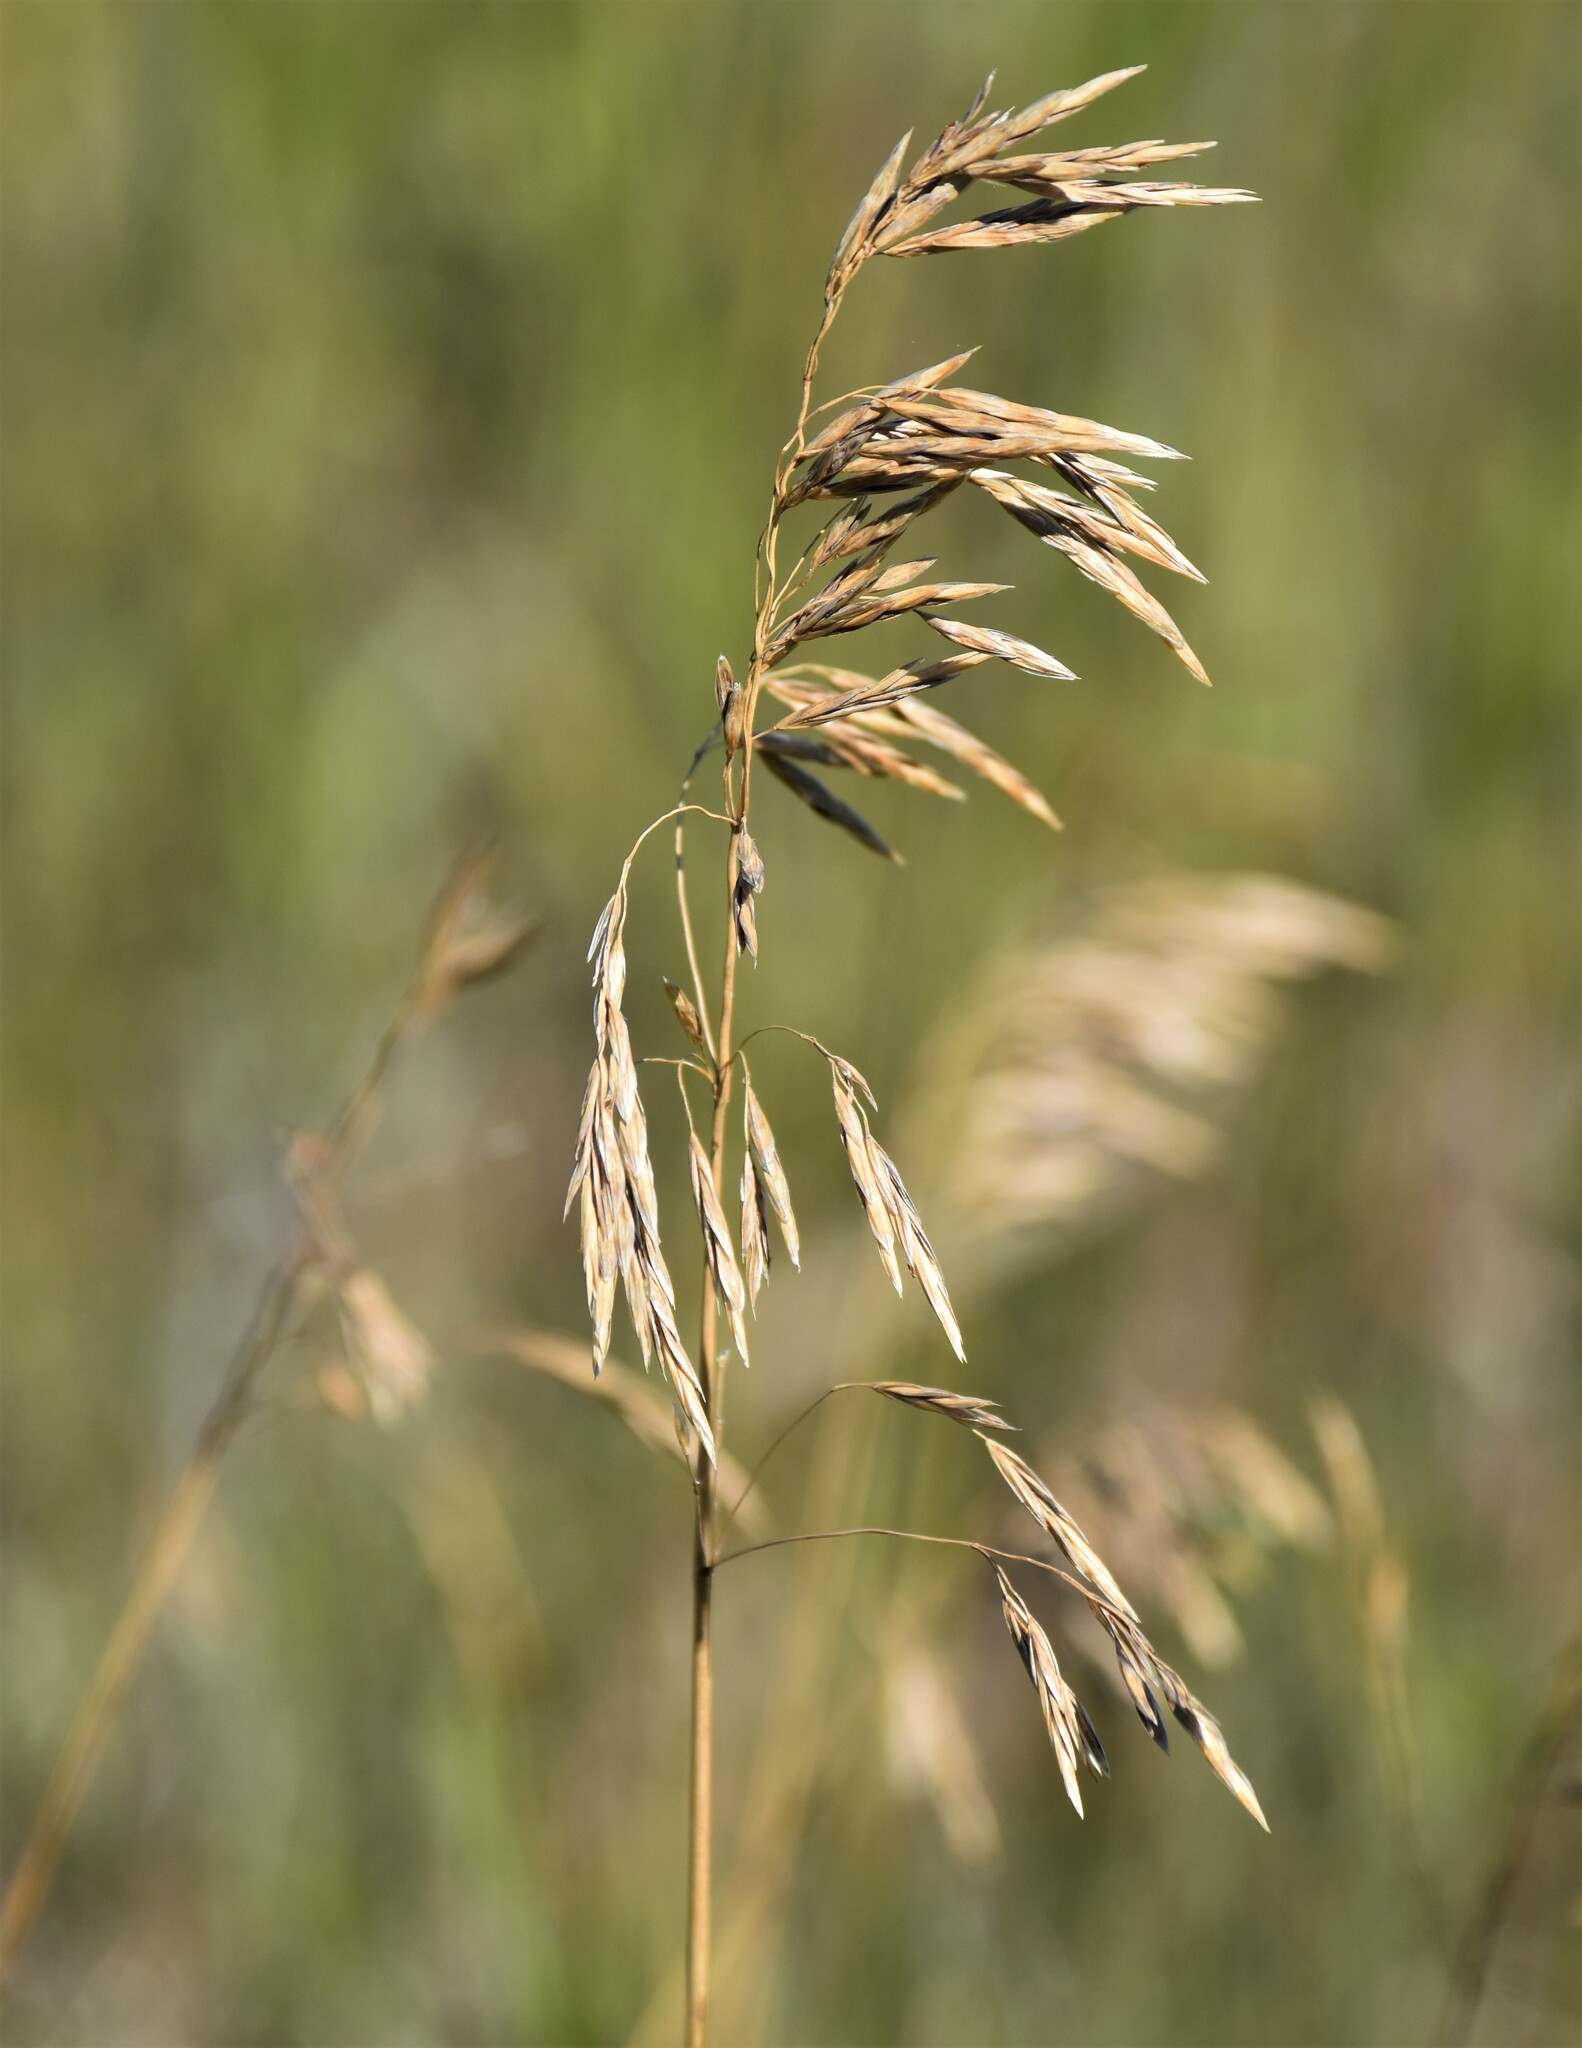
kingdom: Plantae
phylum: Tracheophyta
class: Liliopsida
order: Poales
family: Poaceae
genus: Bromus
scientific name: Bromus inermis
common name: Smooth brome
